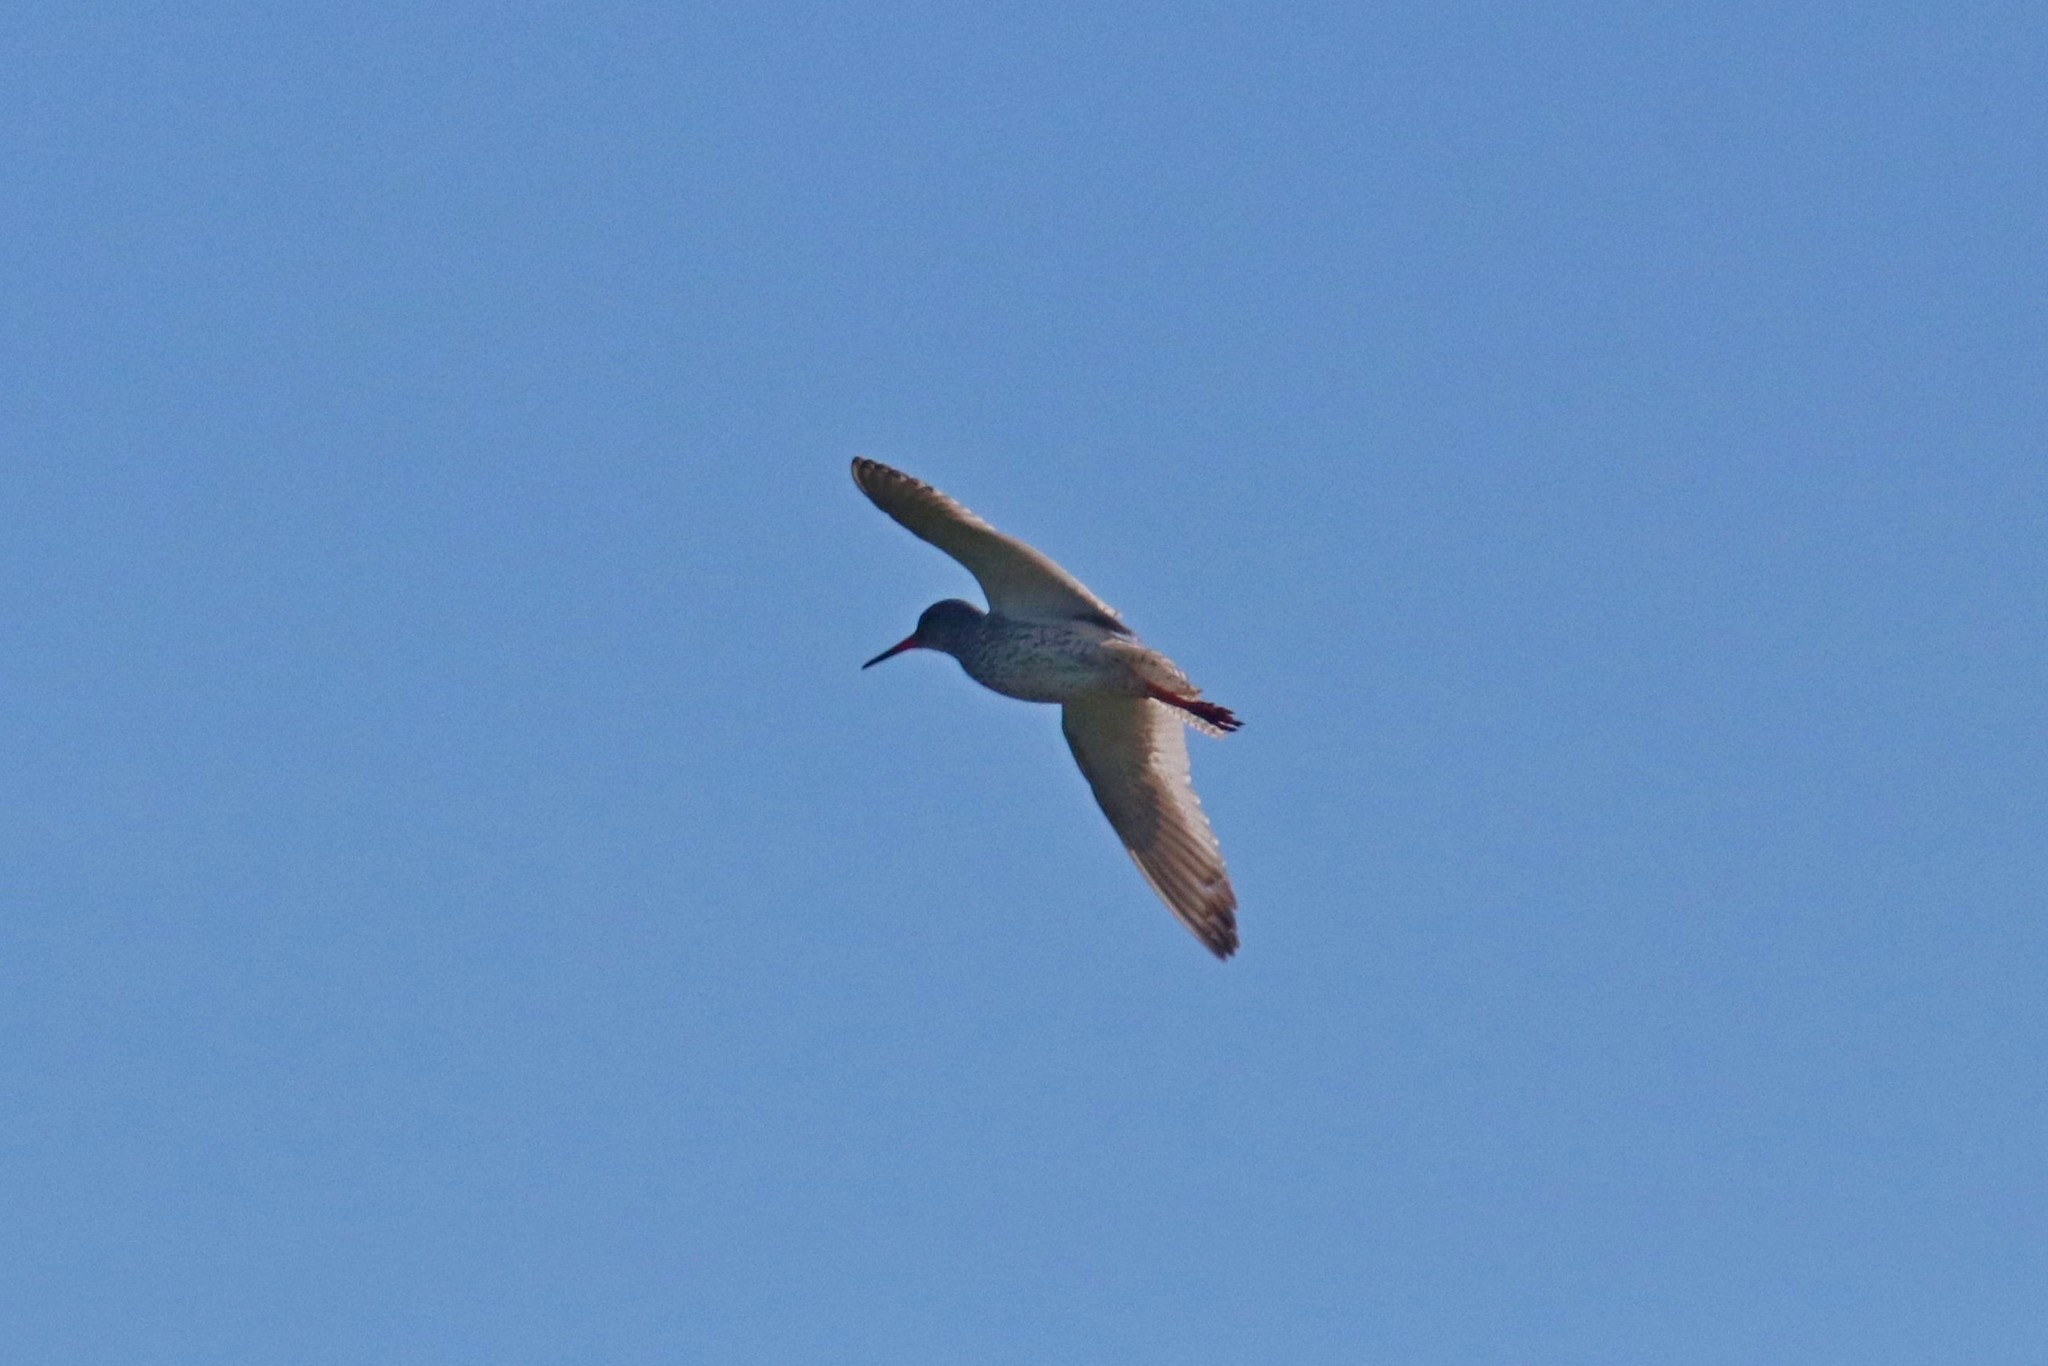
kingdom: Animalia
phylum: Chordata
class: Aves
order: Charadriiformes
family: Scolopacidae
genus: Tringa
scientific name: Tringa totanus
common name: Common redshank
